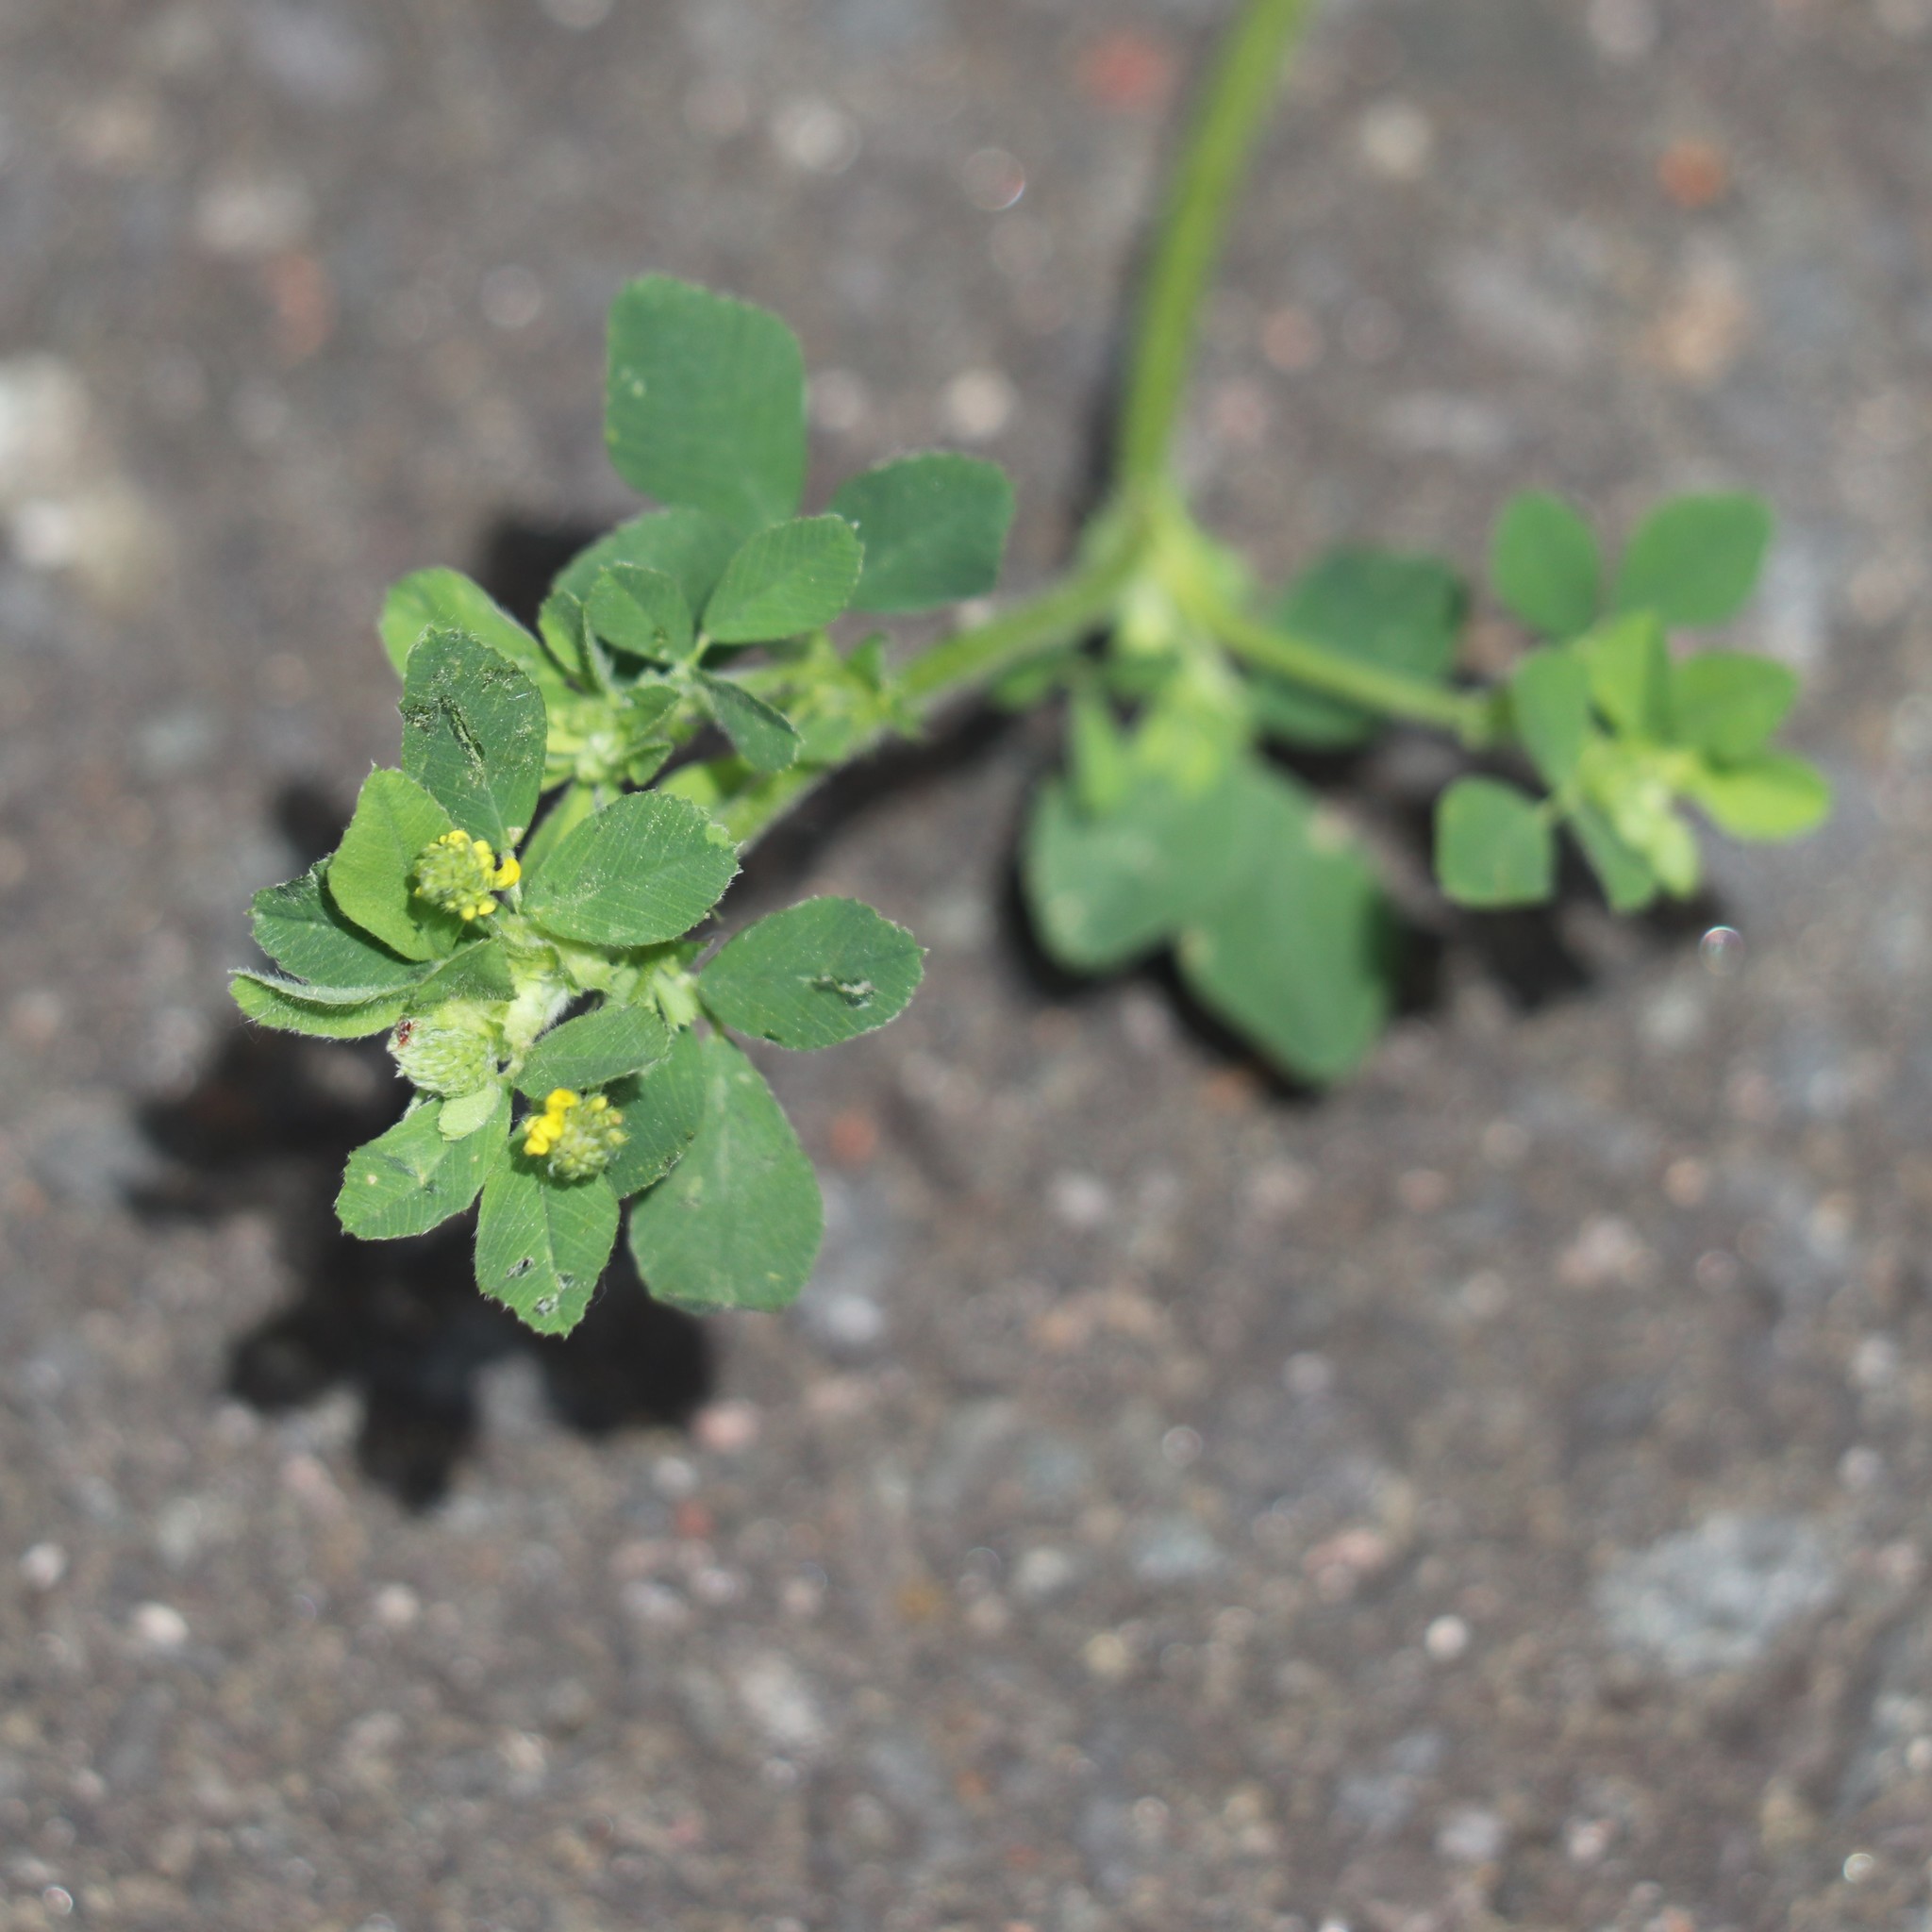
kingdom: Plantae
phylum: Tracheophyta
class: Magnoliopsida
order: Fabales
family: Fabaceae
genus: Medicago
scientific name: Medicago lupulina
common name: Black medick
